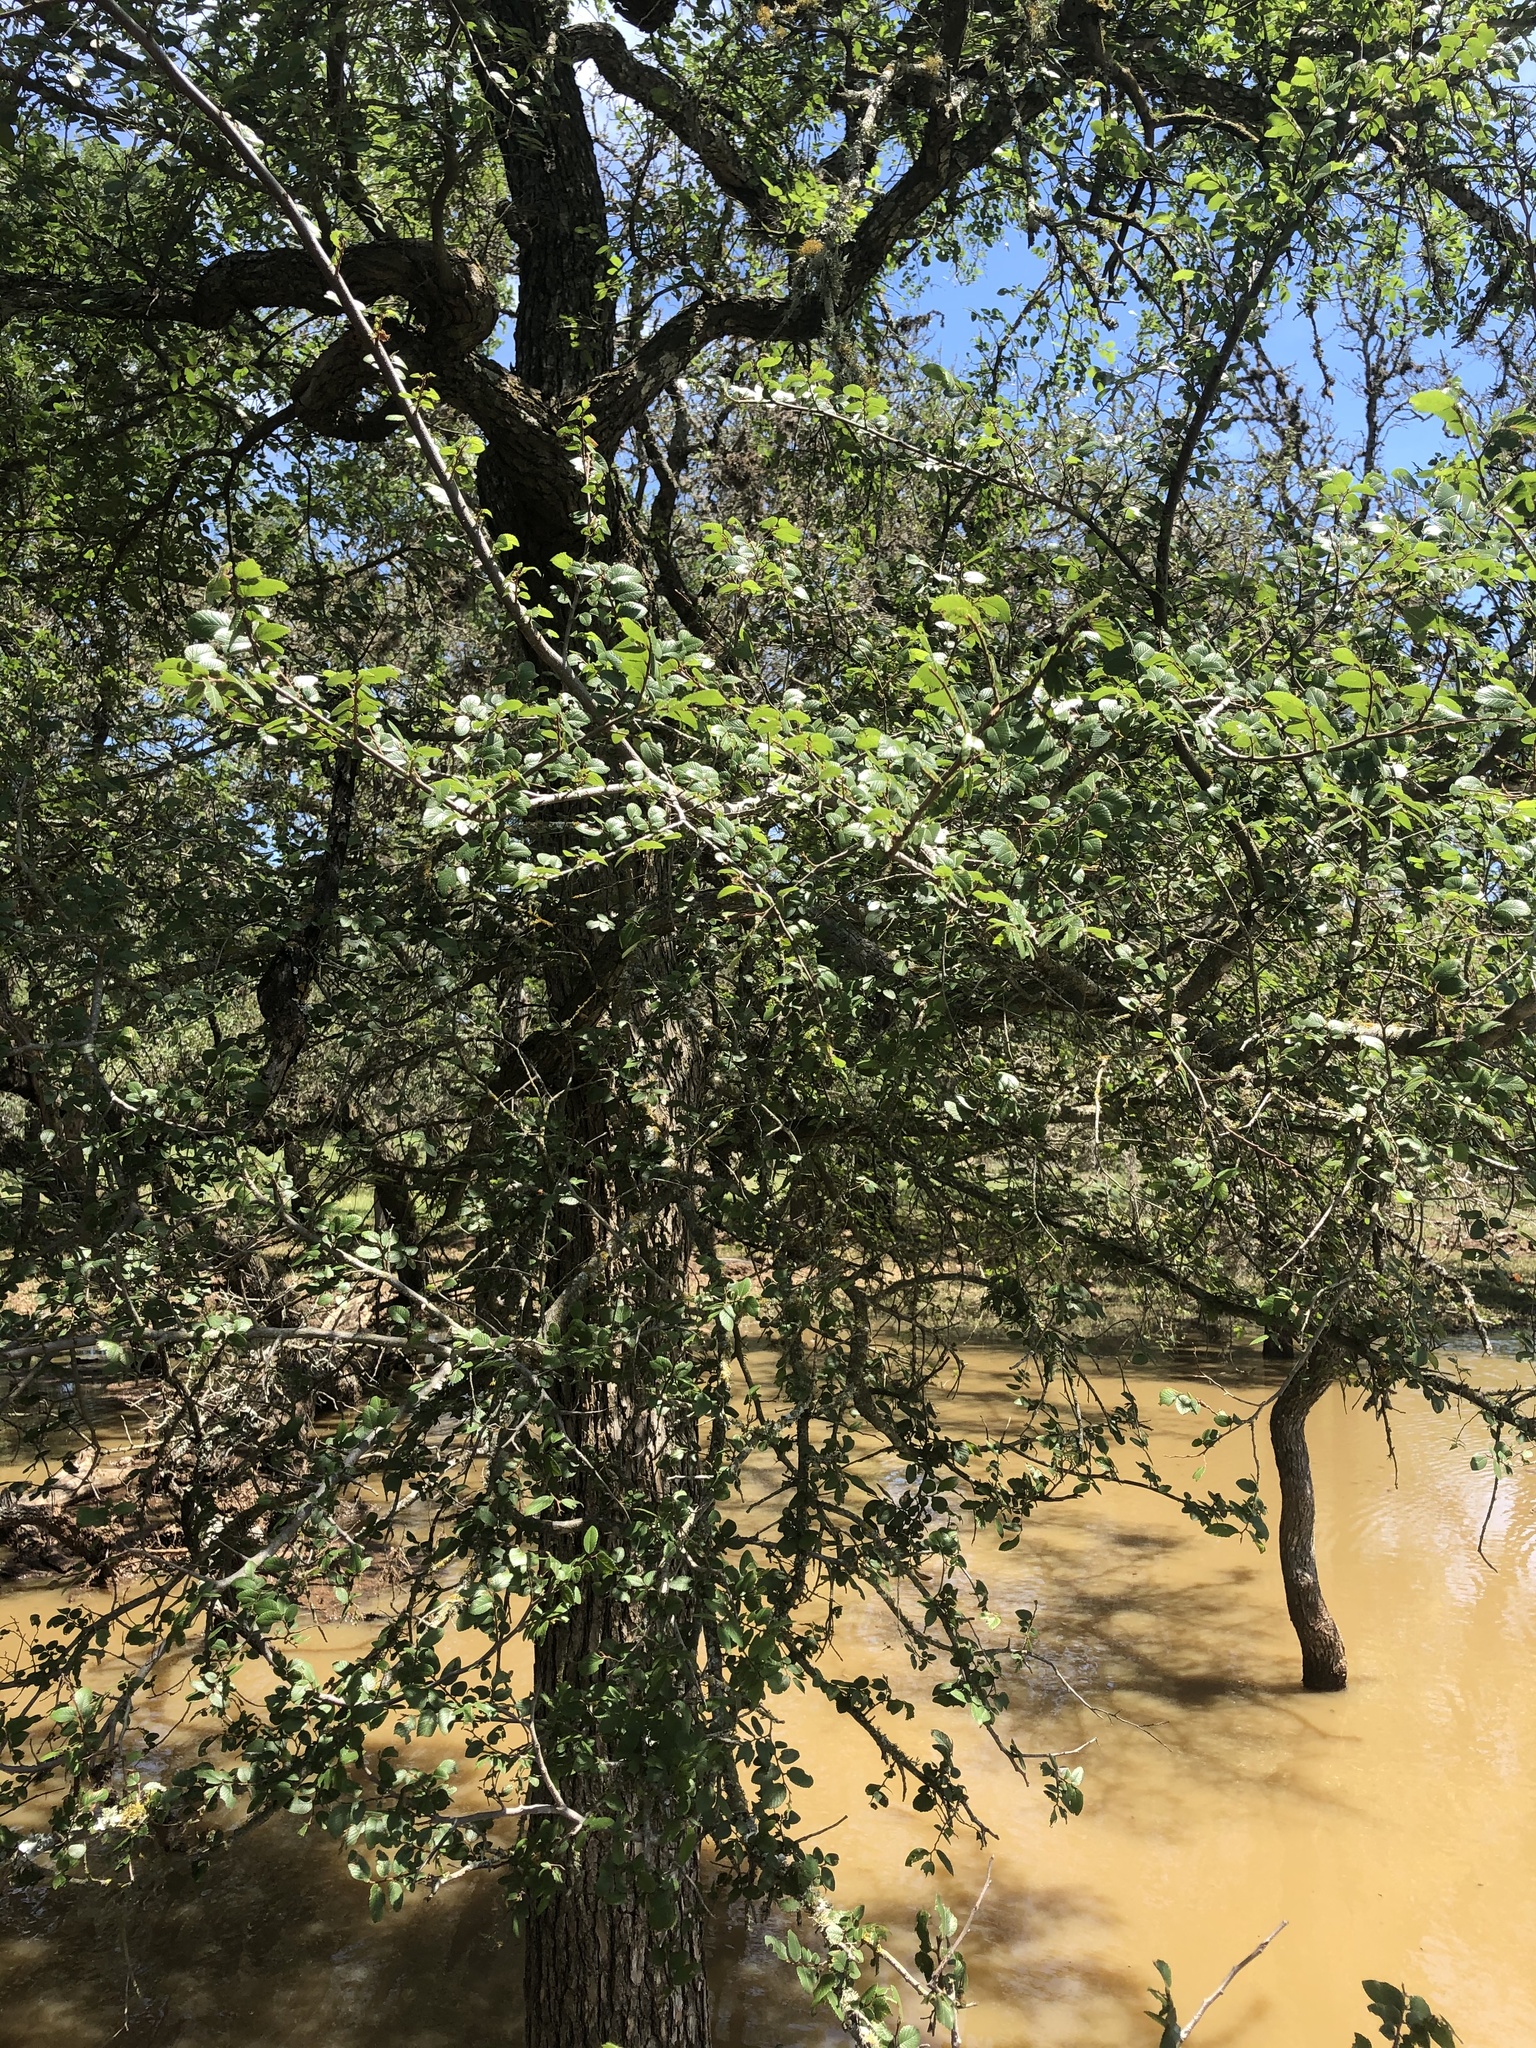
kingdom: Plantae
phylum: Tracheophyta
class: Magnoliopsida
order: Rosales
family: Ulmaceae
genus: Ulmus
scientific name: Ulmus crassifolia
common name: Basket elm
